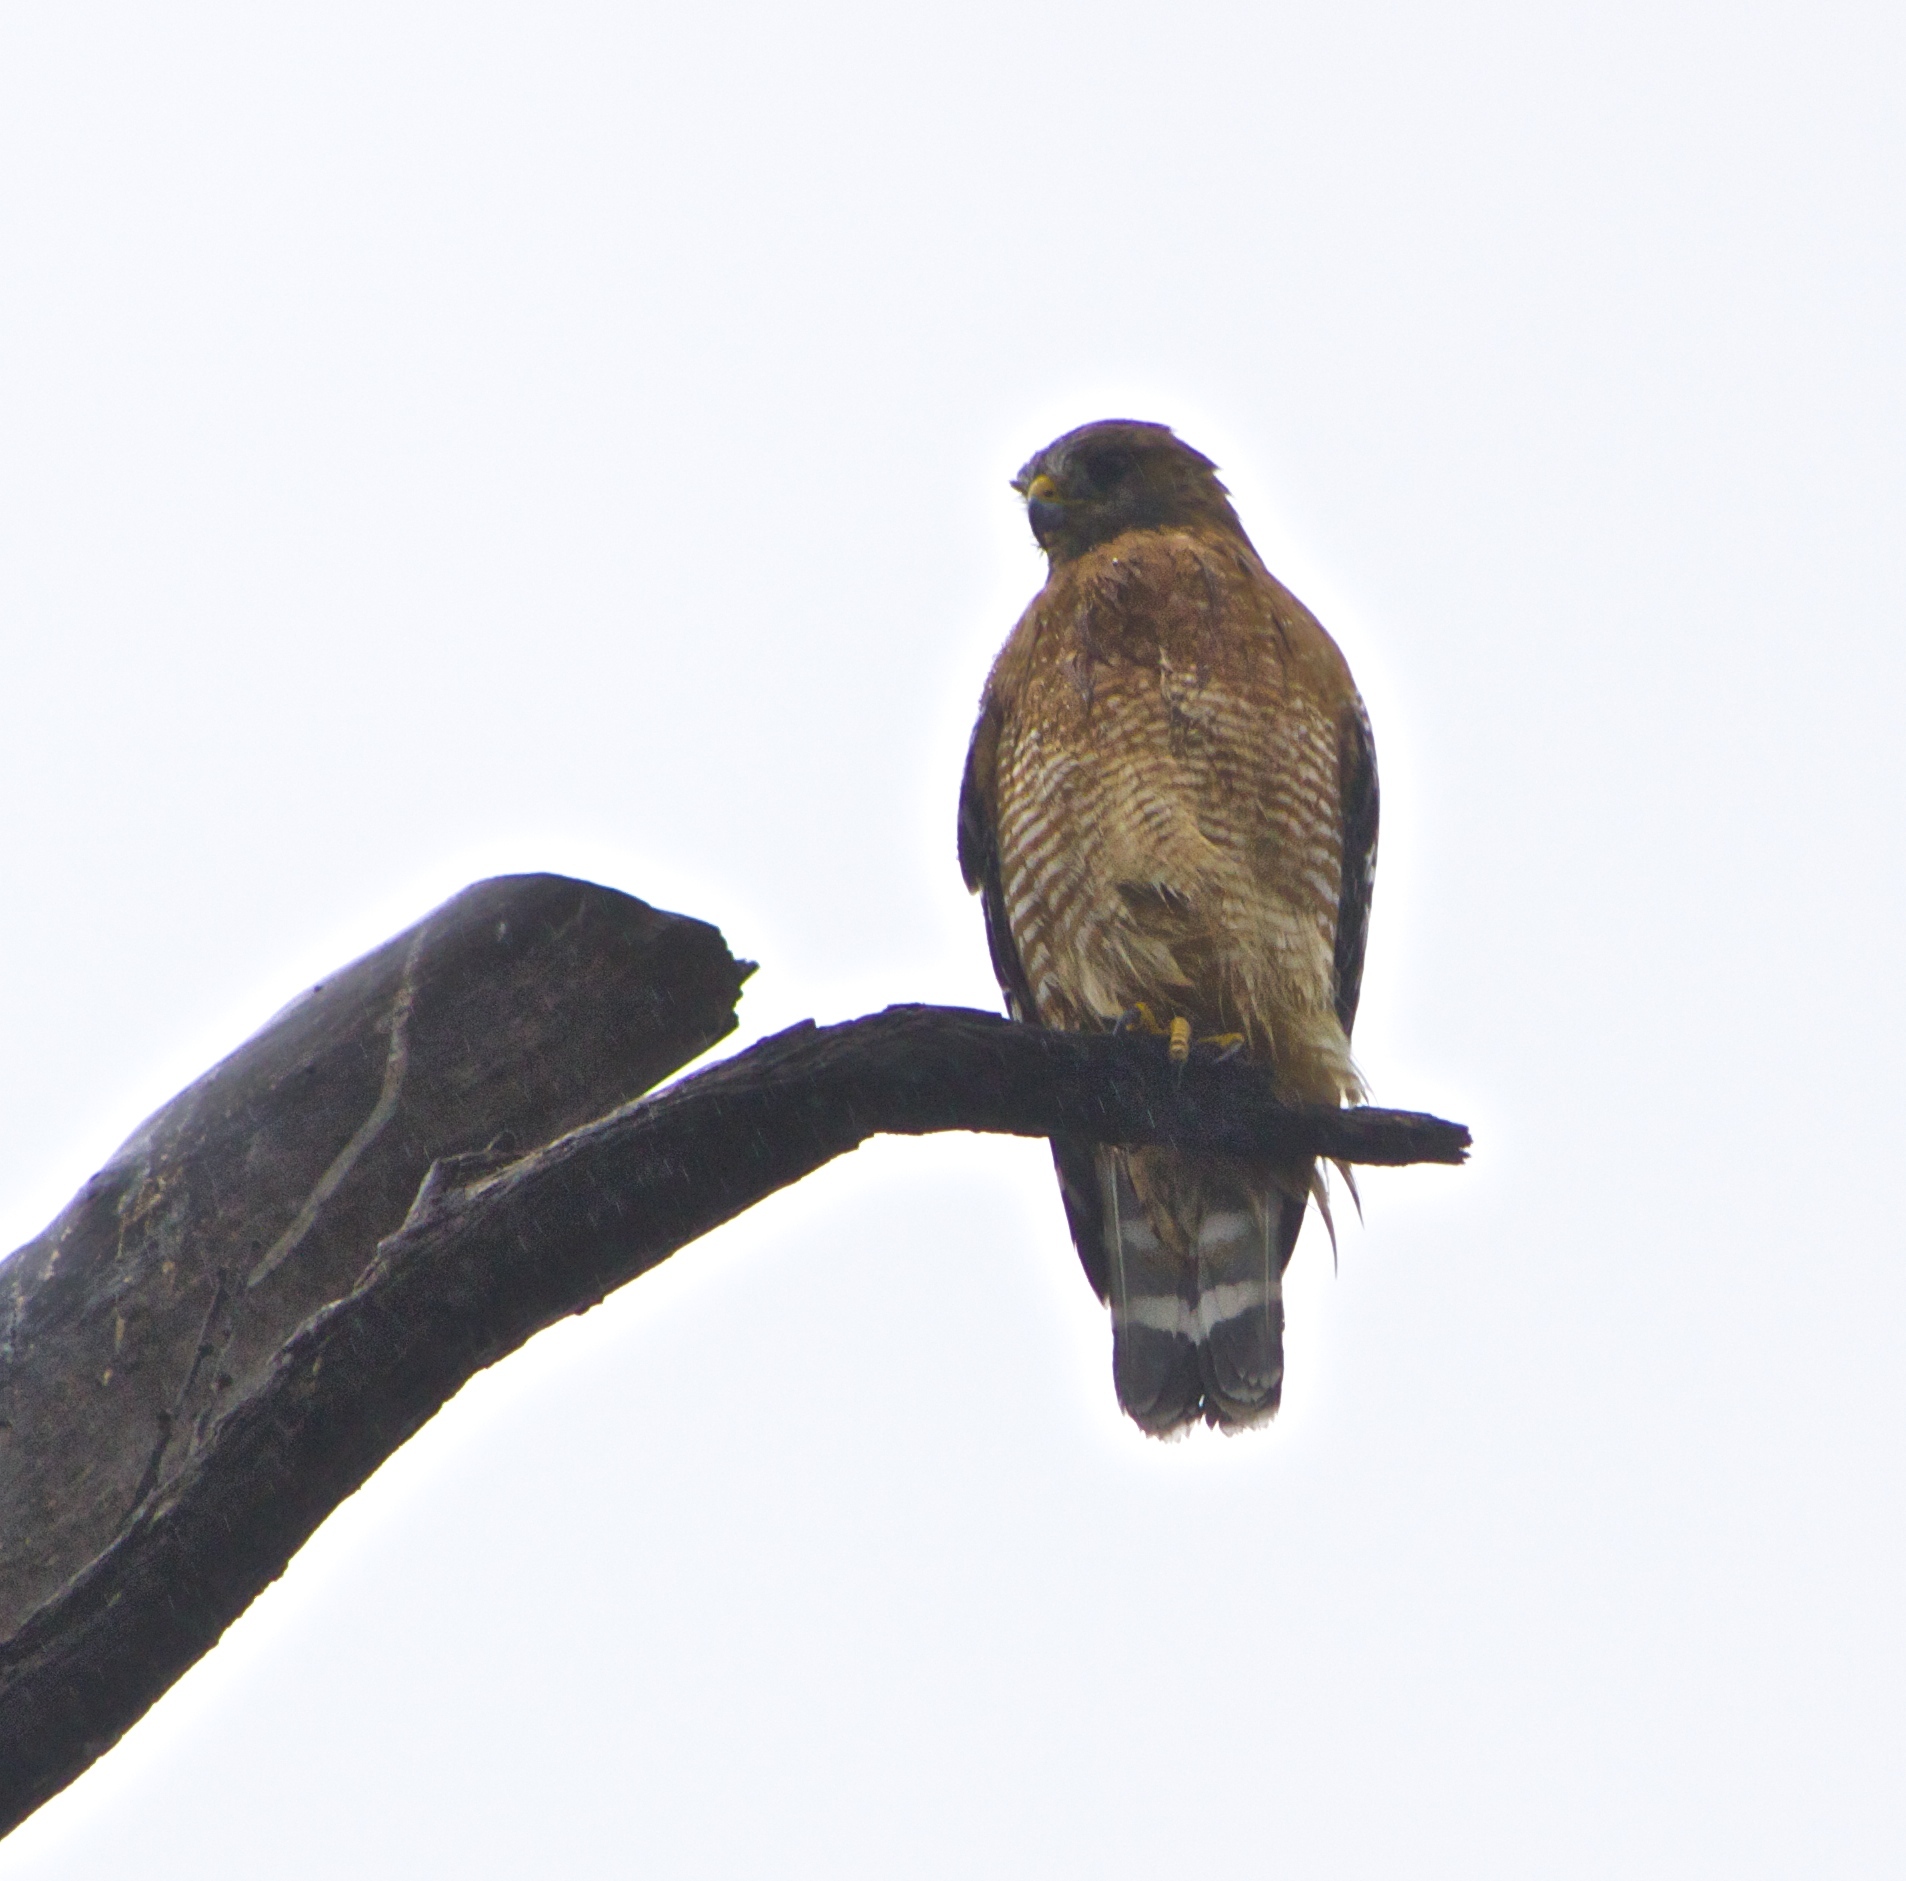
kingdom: Animalia
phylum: Chordata
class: Aves
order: Accipitriformes
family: Accipitridae
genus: Buteo
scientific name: Buteo lineatus
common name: Red-shouldered hawk
